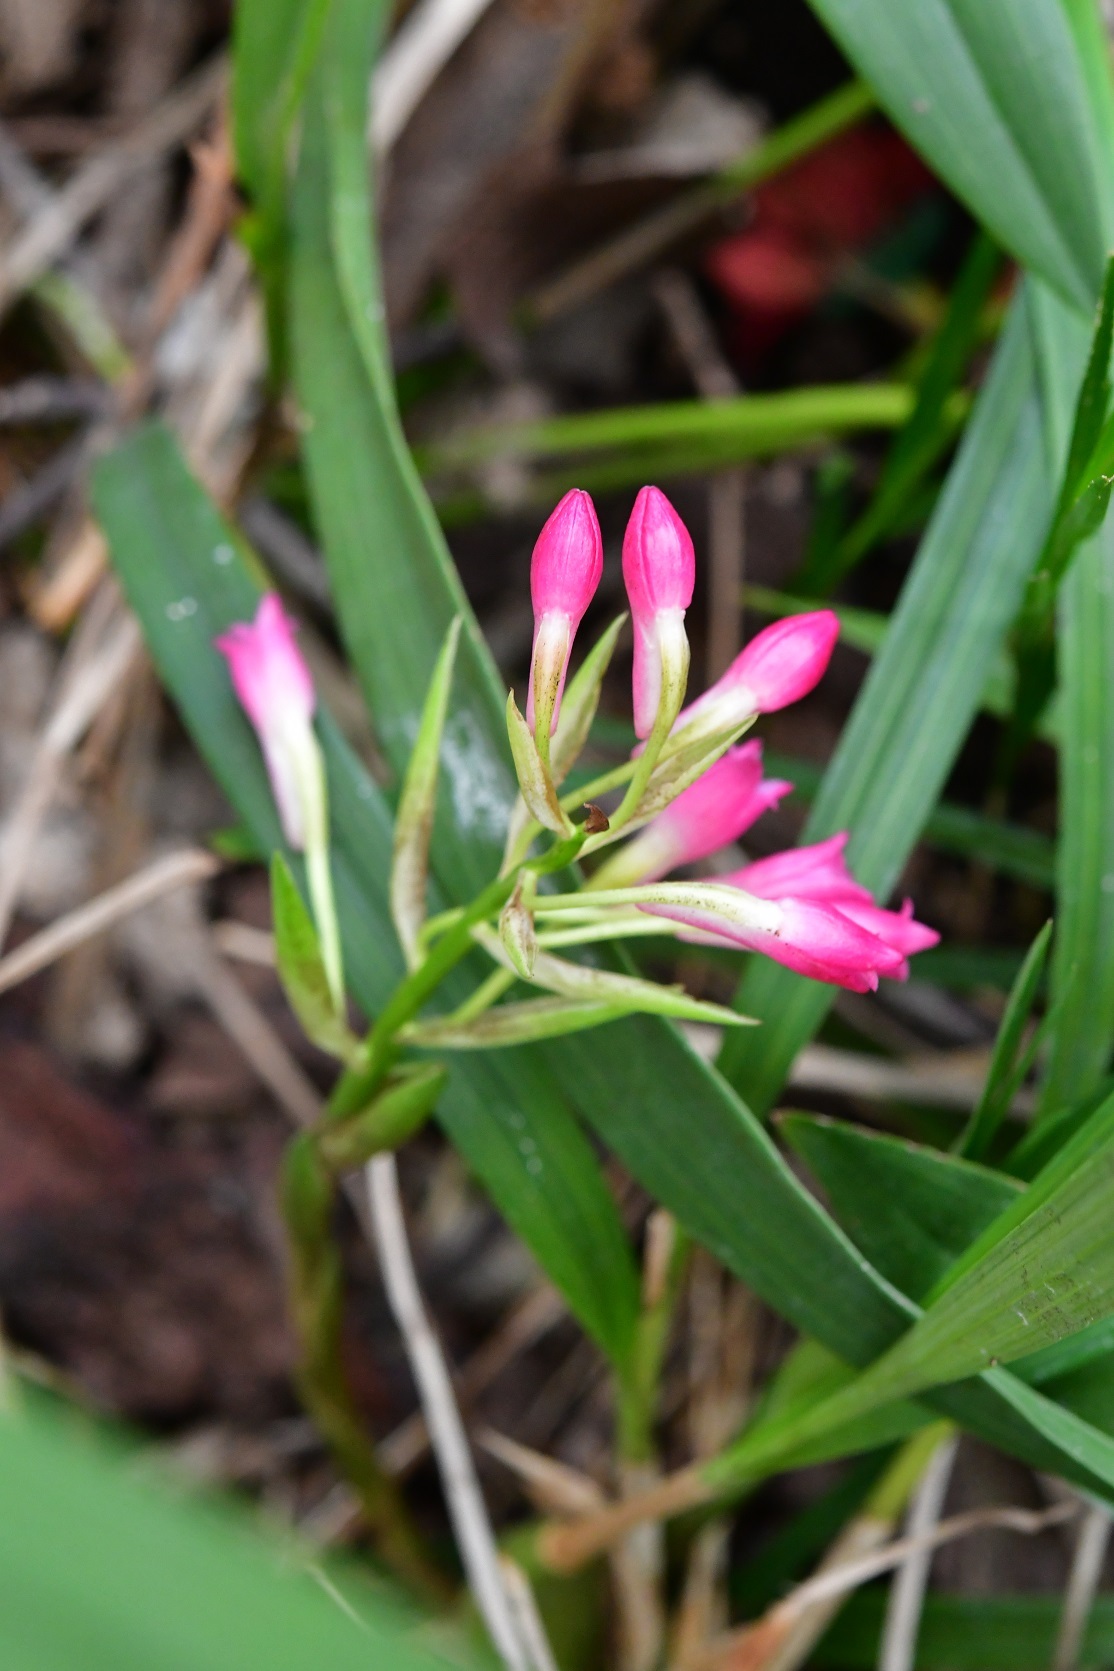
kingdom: Plantae
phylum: Tracheophyta
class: Liliopsida
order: Asparagales
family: Orchidaceae
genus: Coelia
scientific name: Coelia guatemalensis
